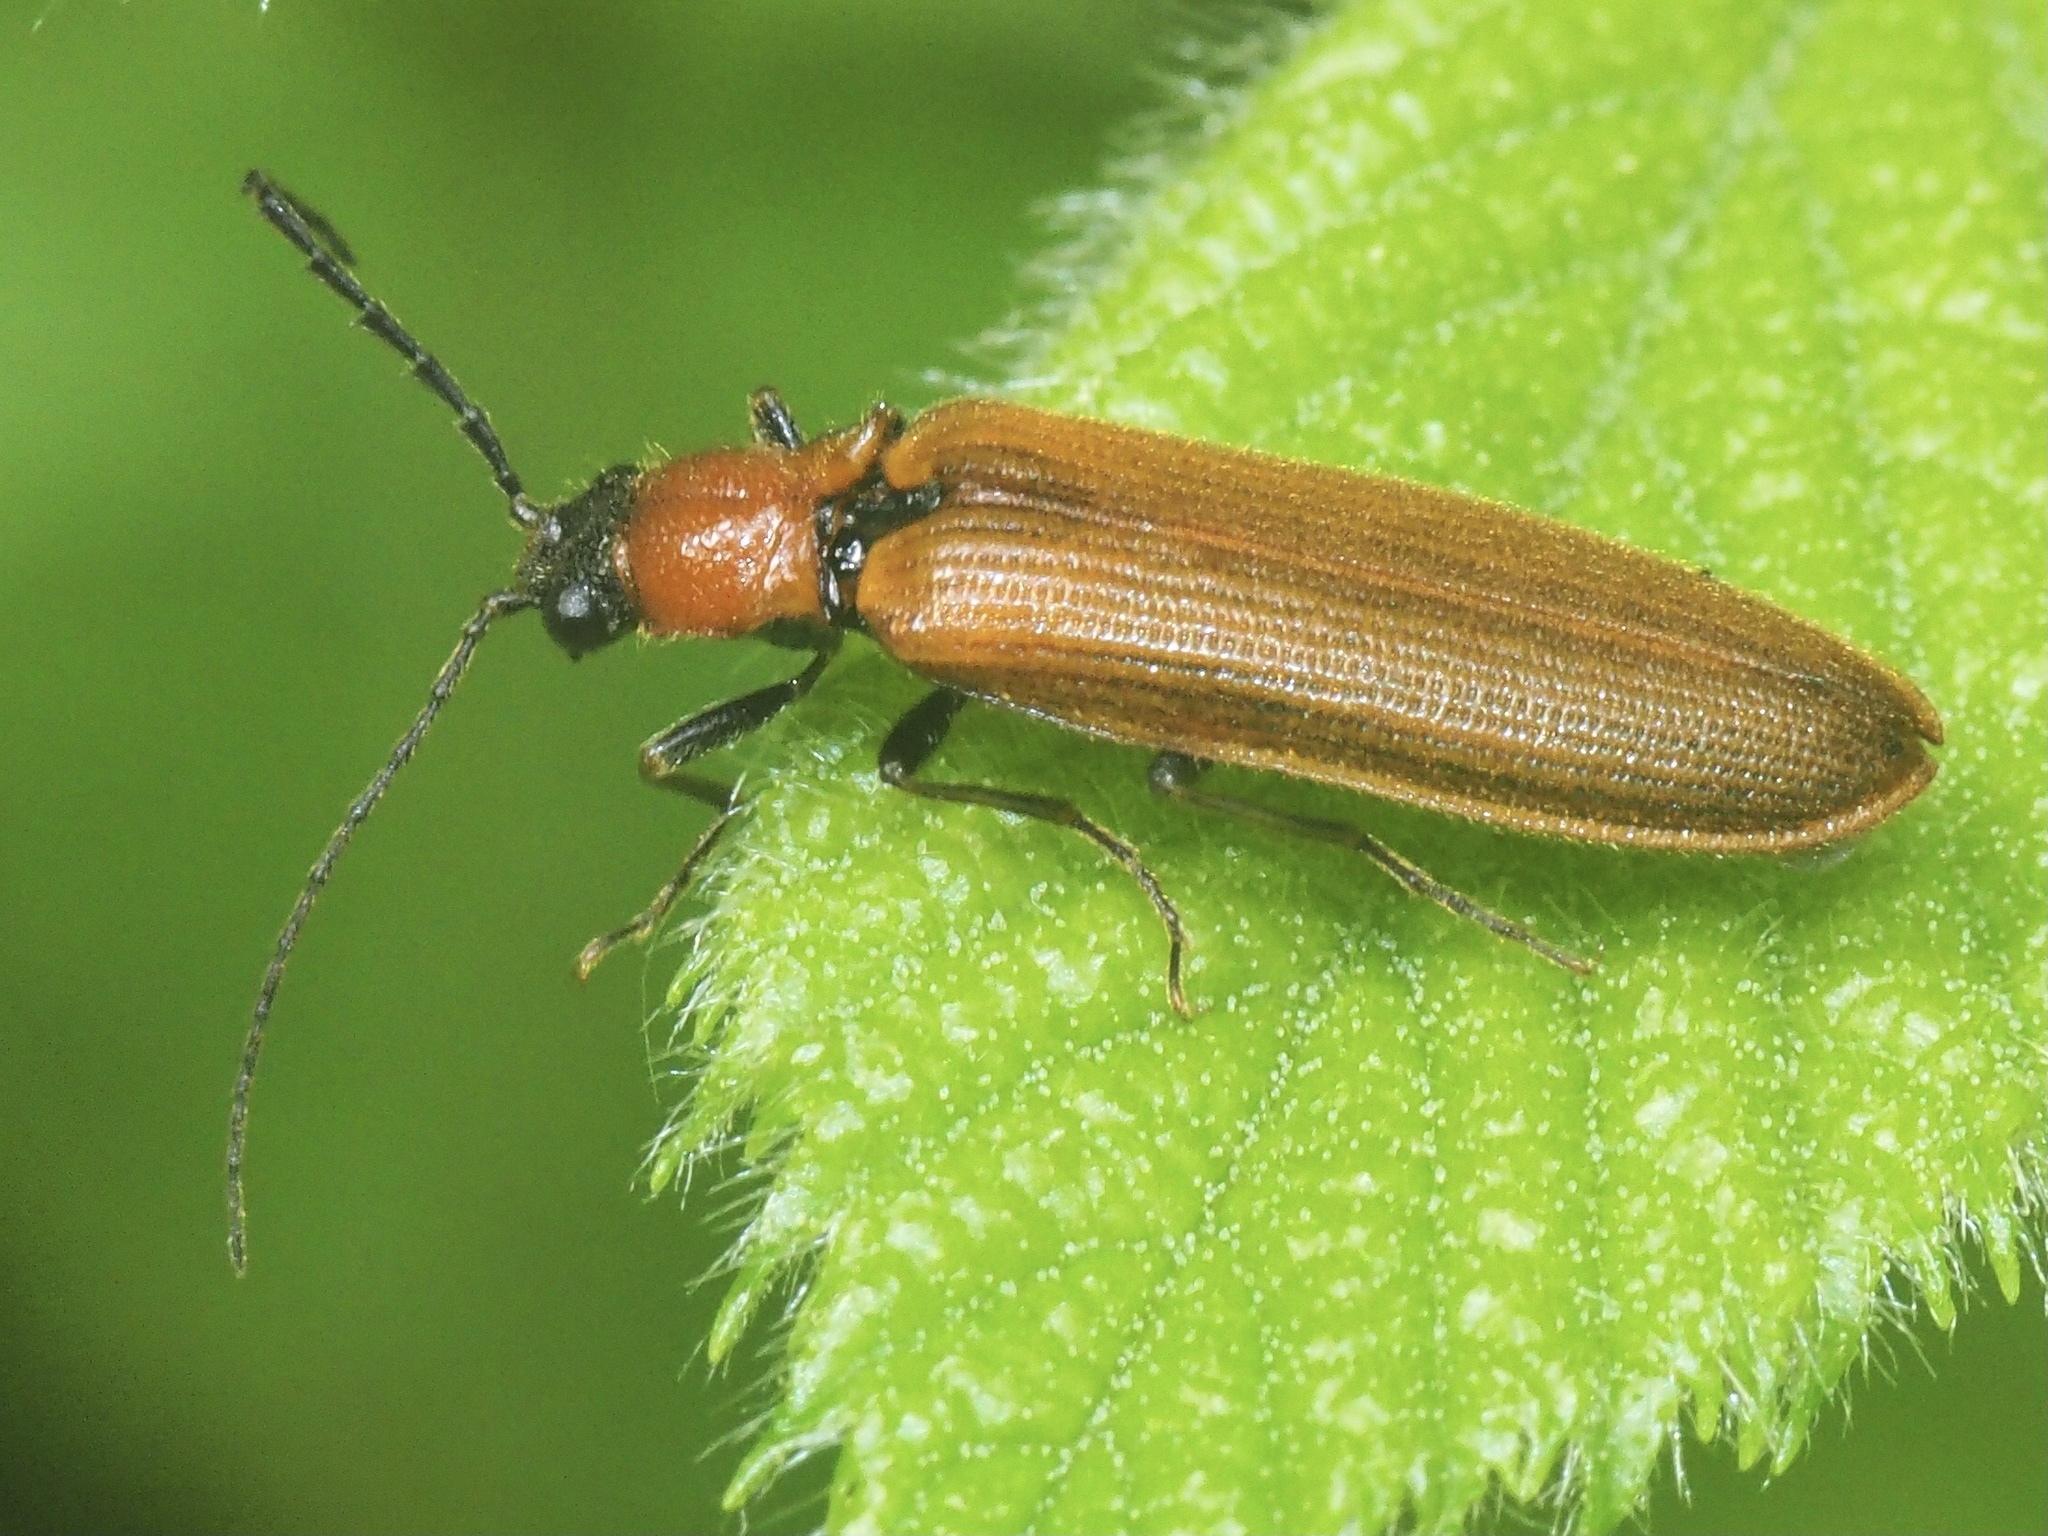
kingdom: Animalia
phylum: Arthropoda
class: Insecta
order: Coleoptera
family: Elateridae
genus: Denticollis
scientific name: Denticollis linearis
